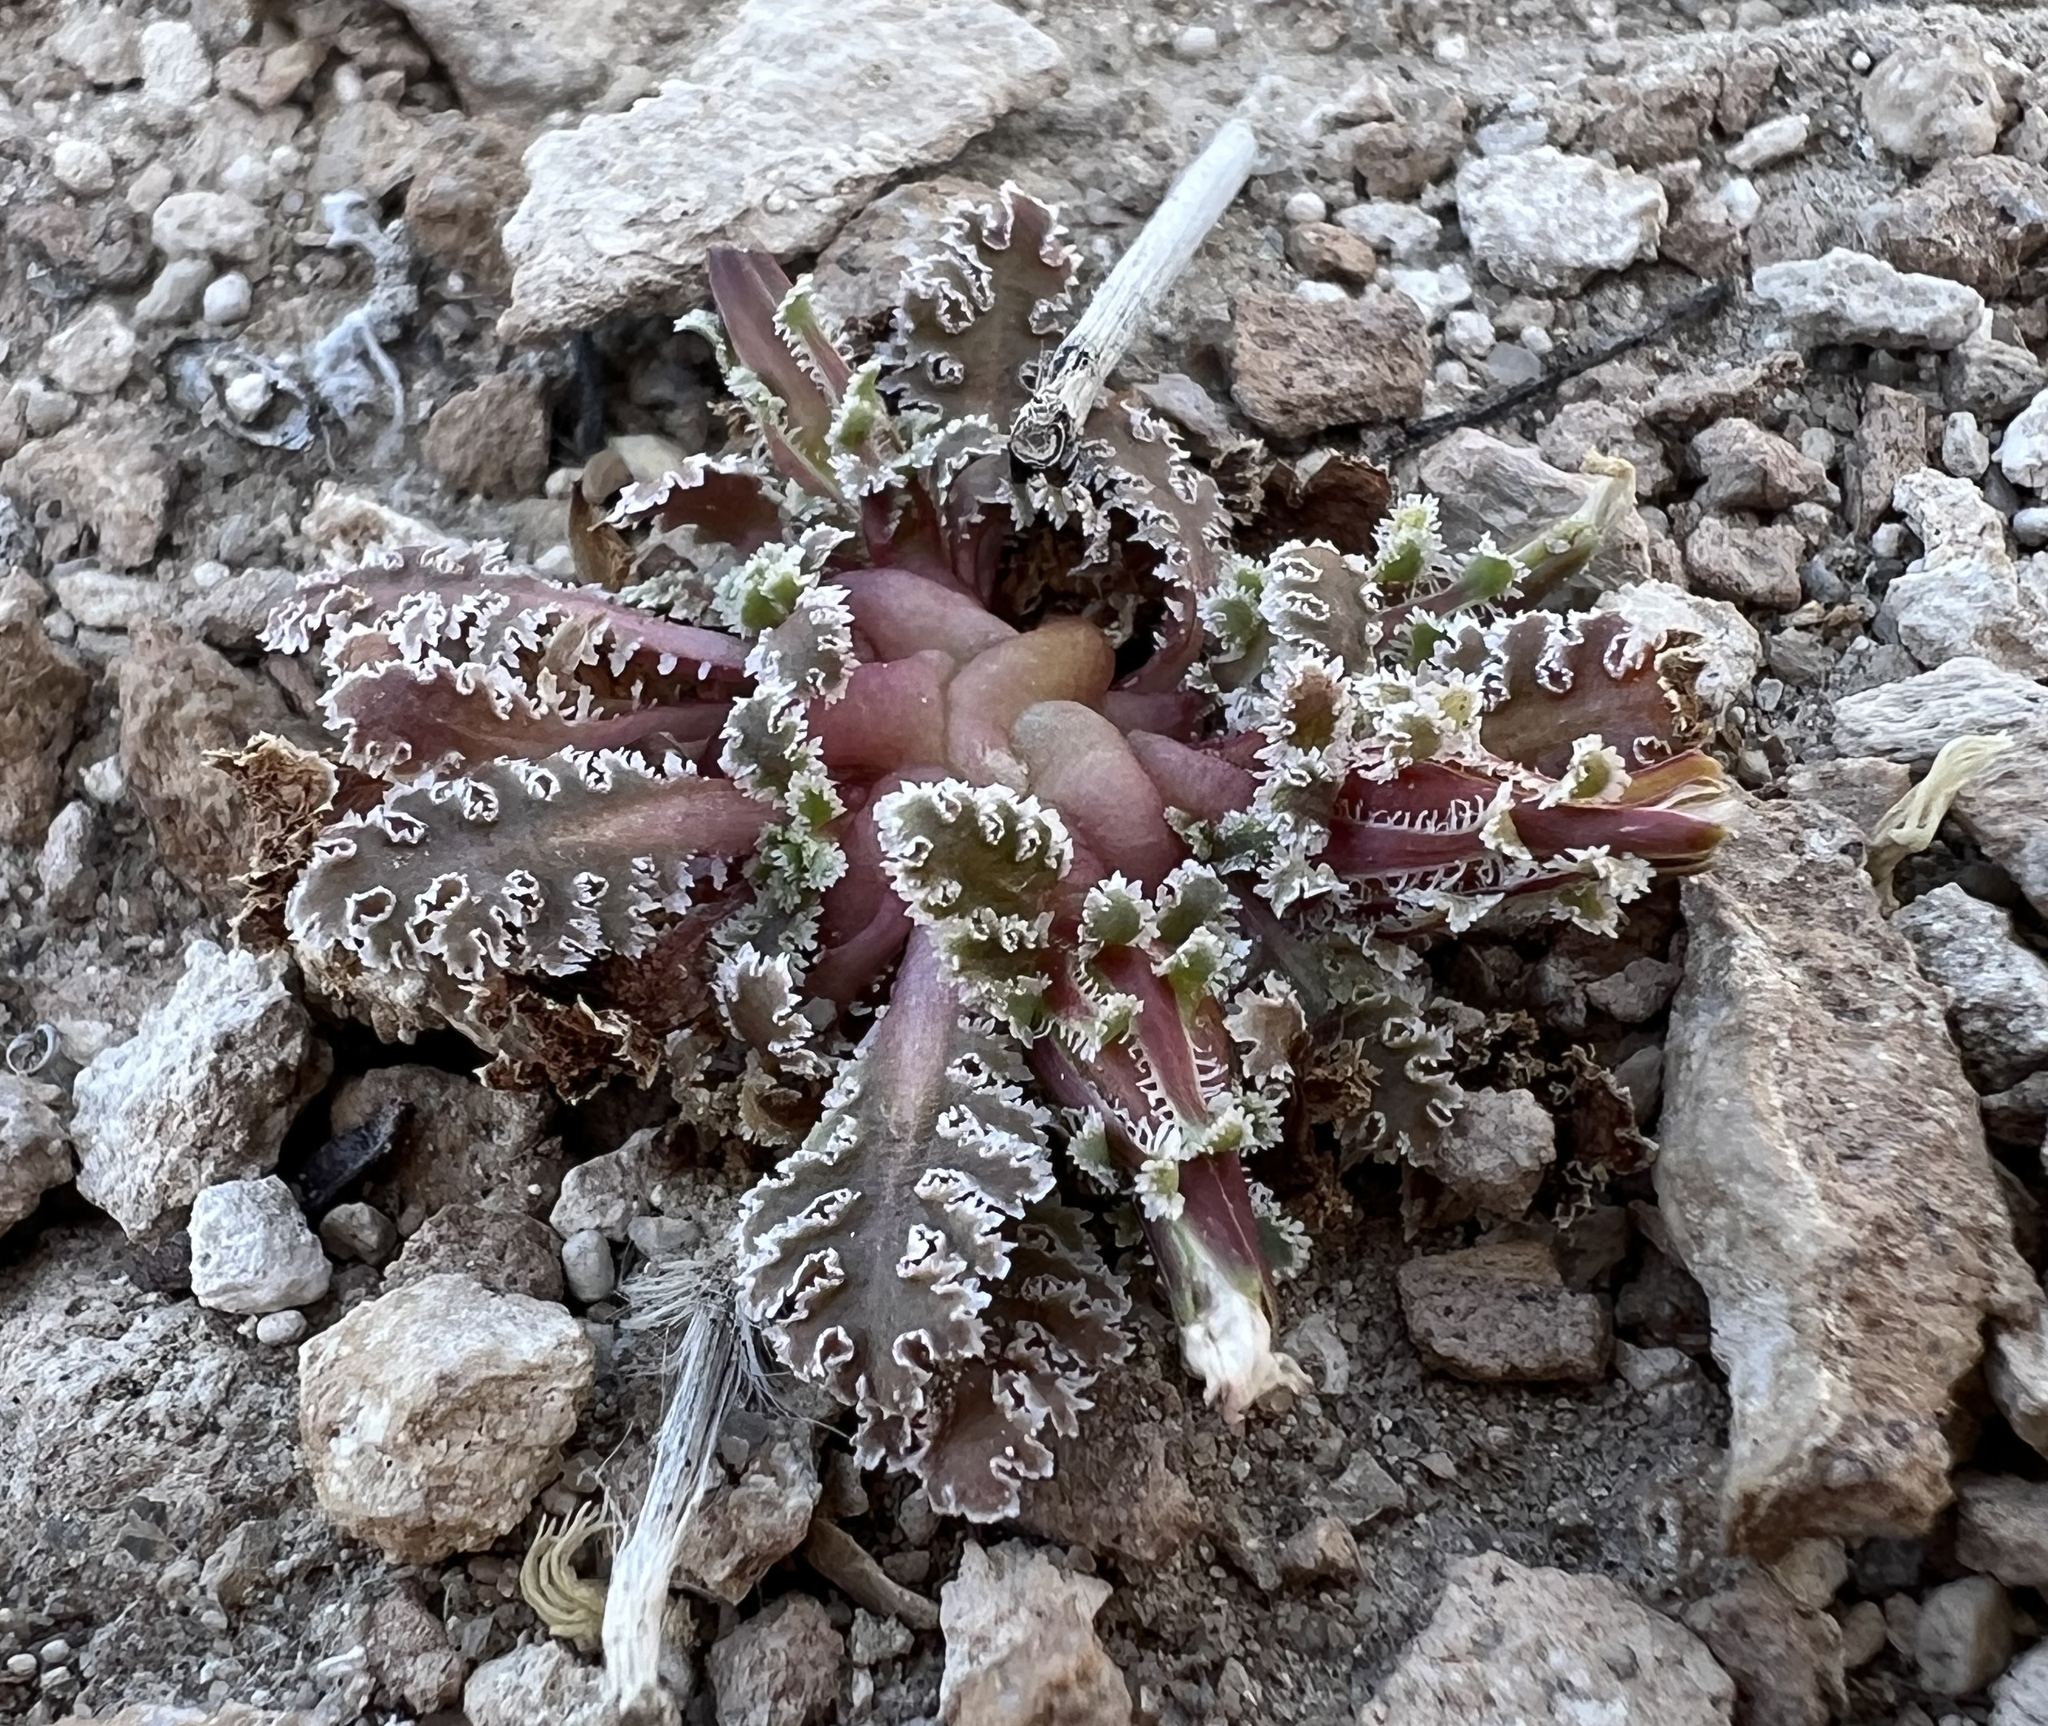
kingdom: Plantae
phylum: Tracheophyta
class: Magnoliopsida
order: Asterales
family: Asteraceae
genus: Glyptopleura
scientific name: Glyptopleura marginata
